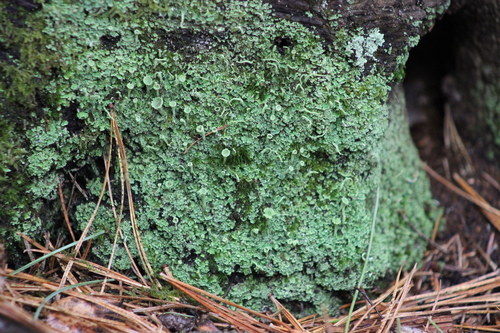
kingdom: Fungi
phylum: Ascomycota
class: Lecanoromycetes
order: Lecanorales
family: Cladoniaceae
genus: Cladonia
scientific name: Cladonia fimbriata
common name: Powdered trumpet lichen
